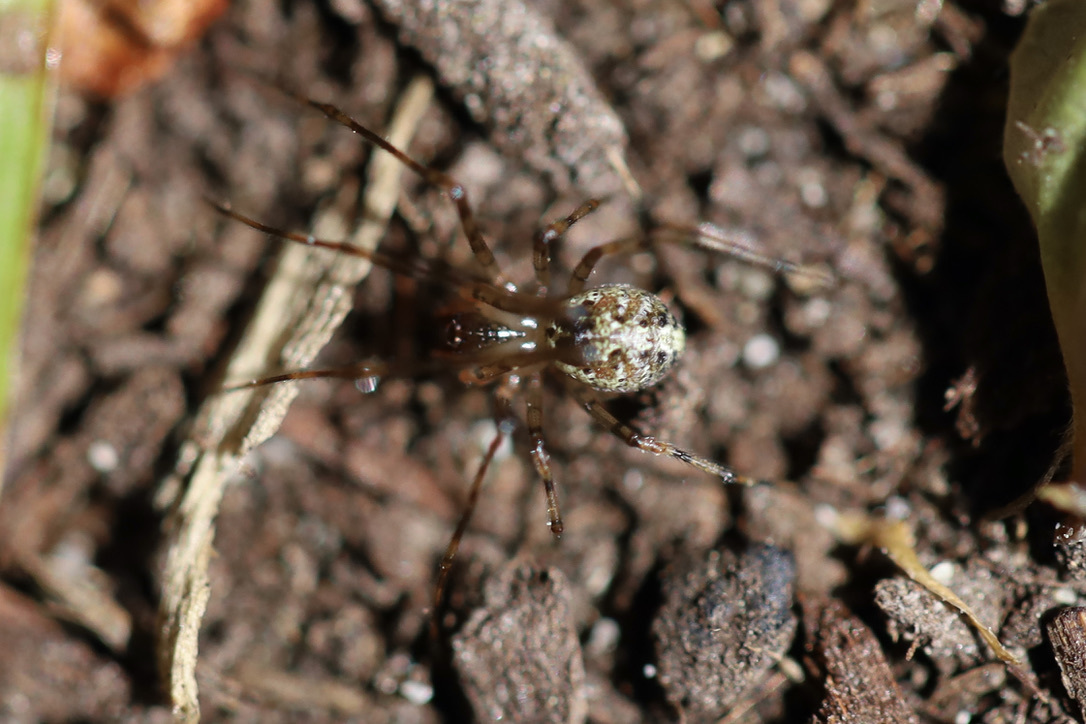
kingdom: Animalia
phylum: Arthropoda
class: Arachnida
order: Araneae
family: Theridiidae
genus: Platnickina
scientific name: Platnickina tincta
